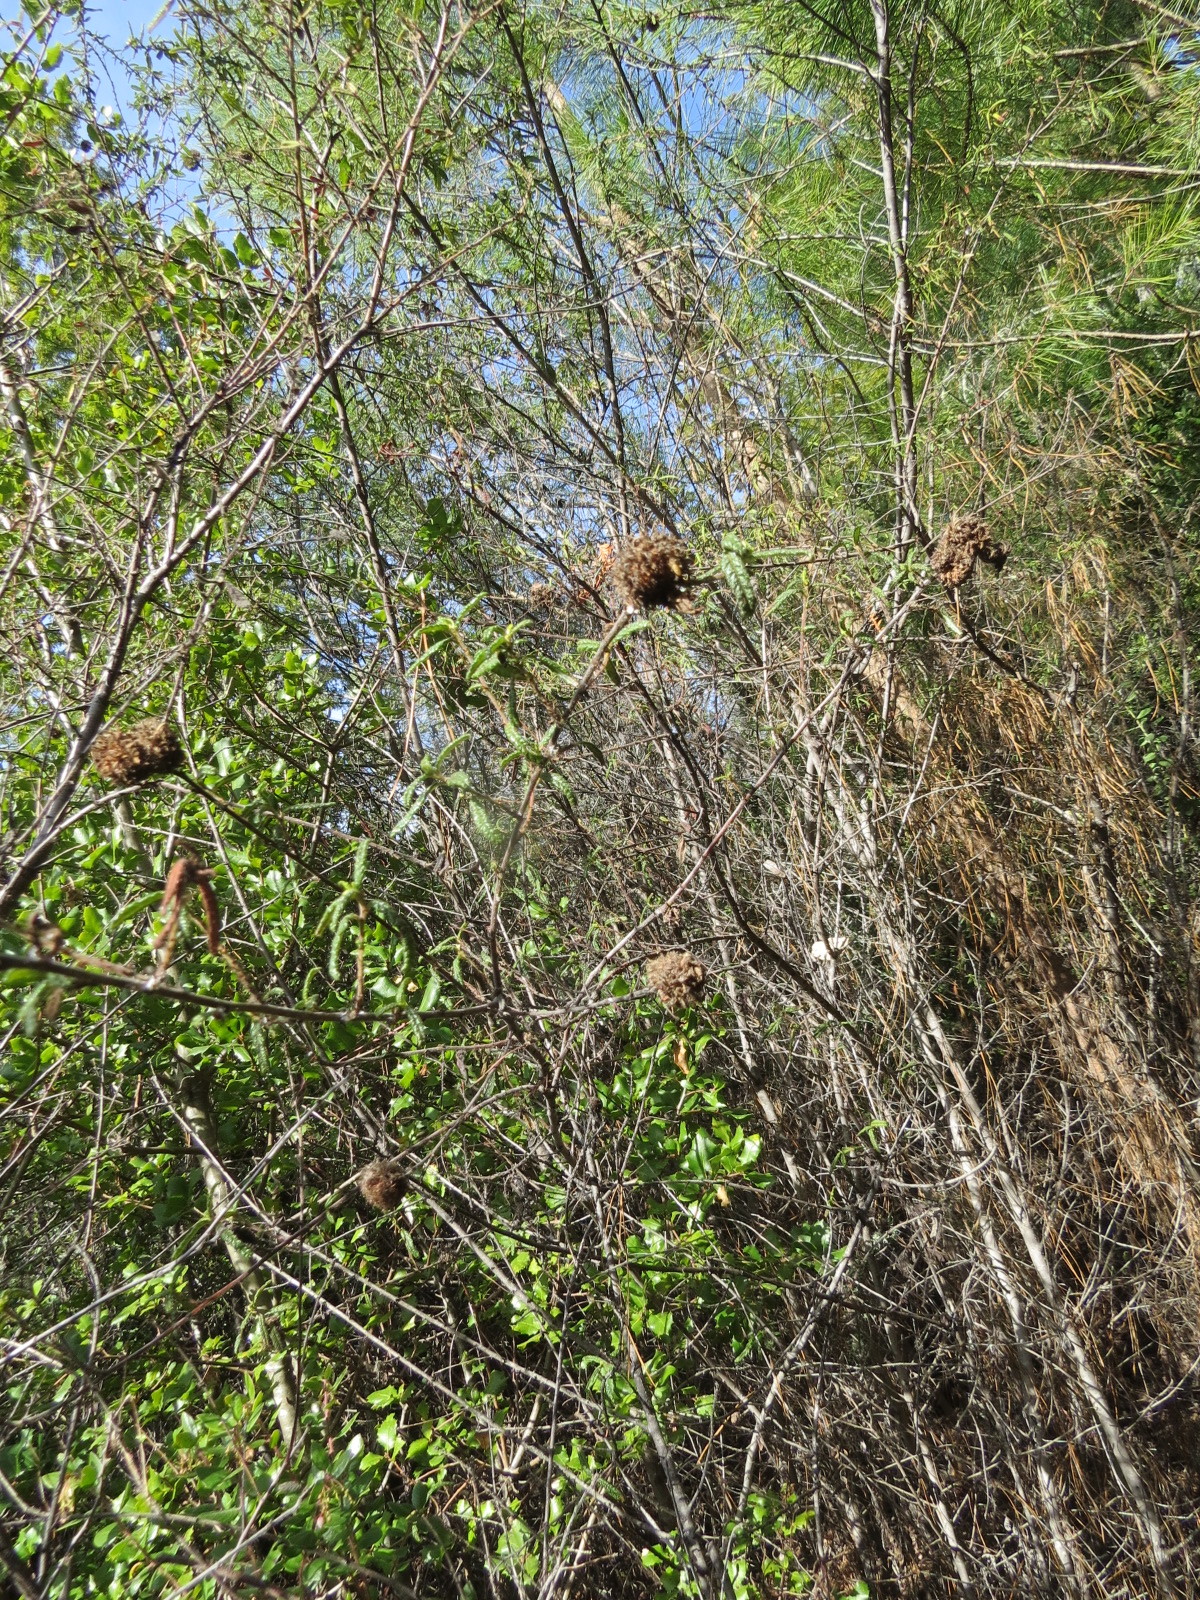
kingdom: Animalia
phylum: Arthropoda
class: Insecta
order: Diptera
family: Cecidomyiidae
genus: Asphondylia
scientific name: Asphondylia ceanothi
